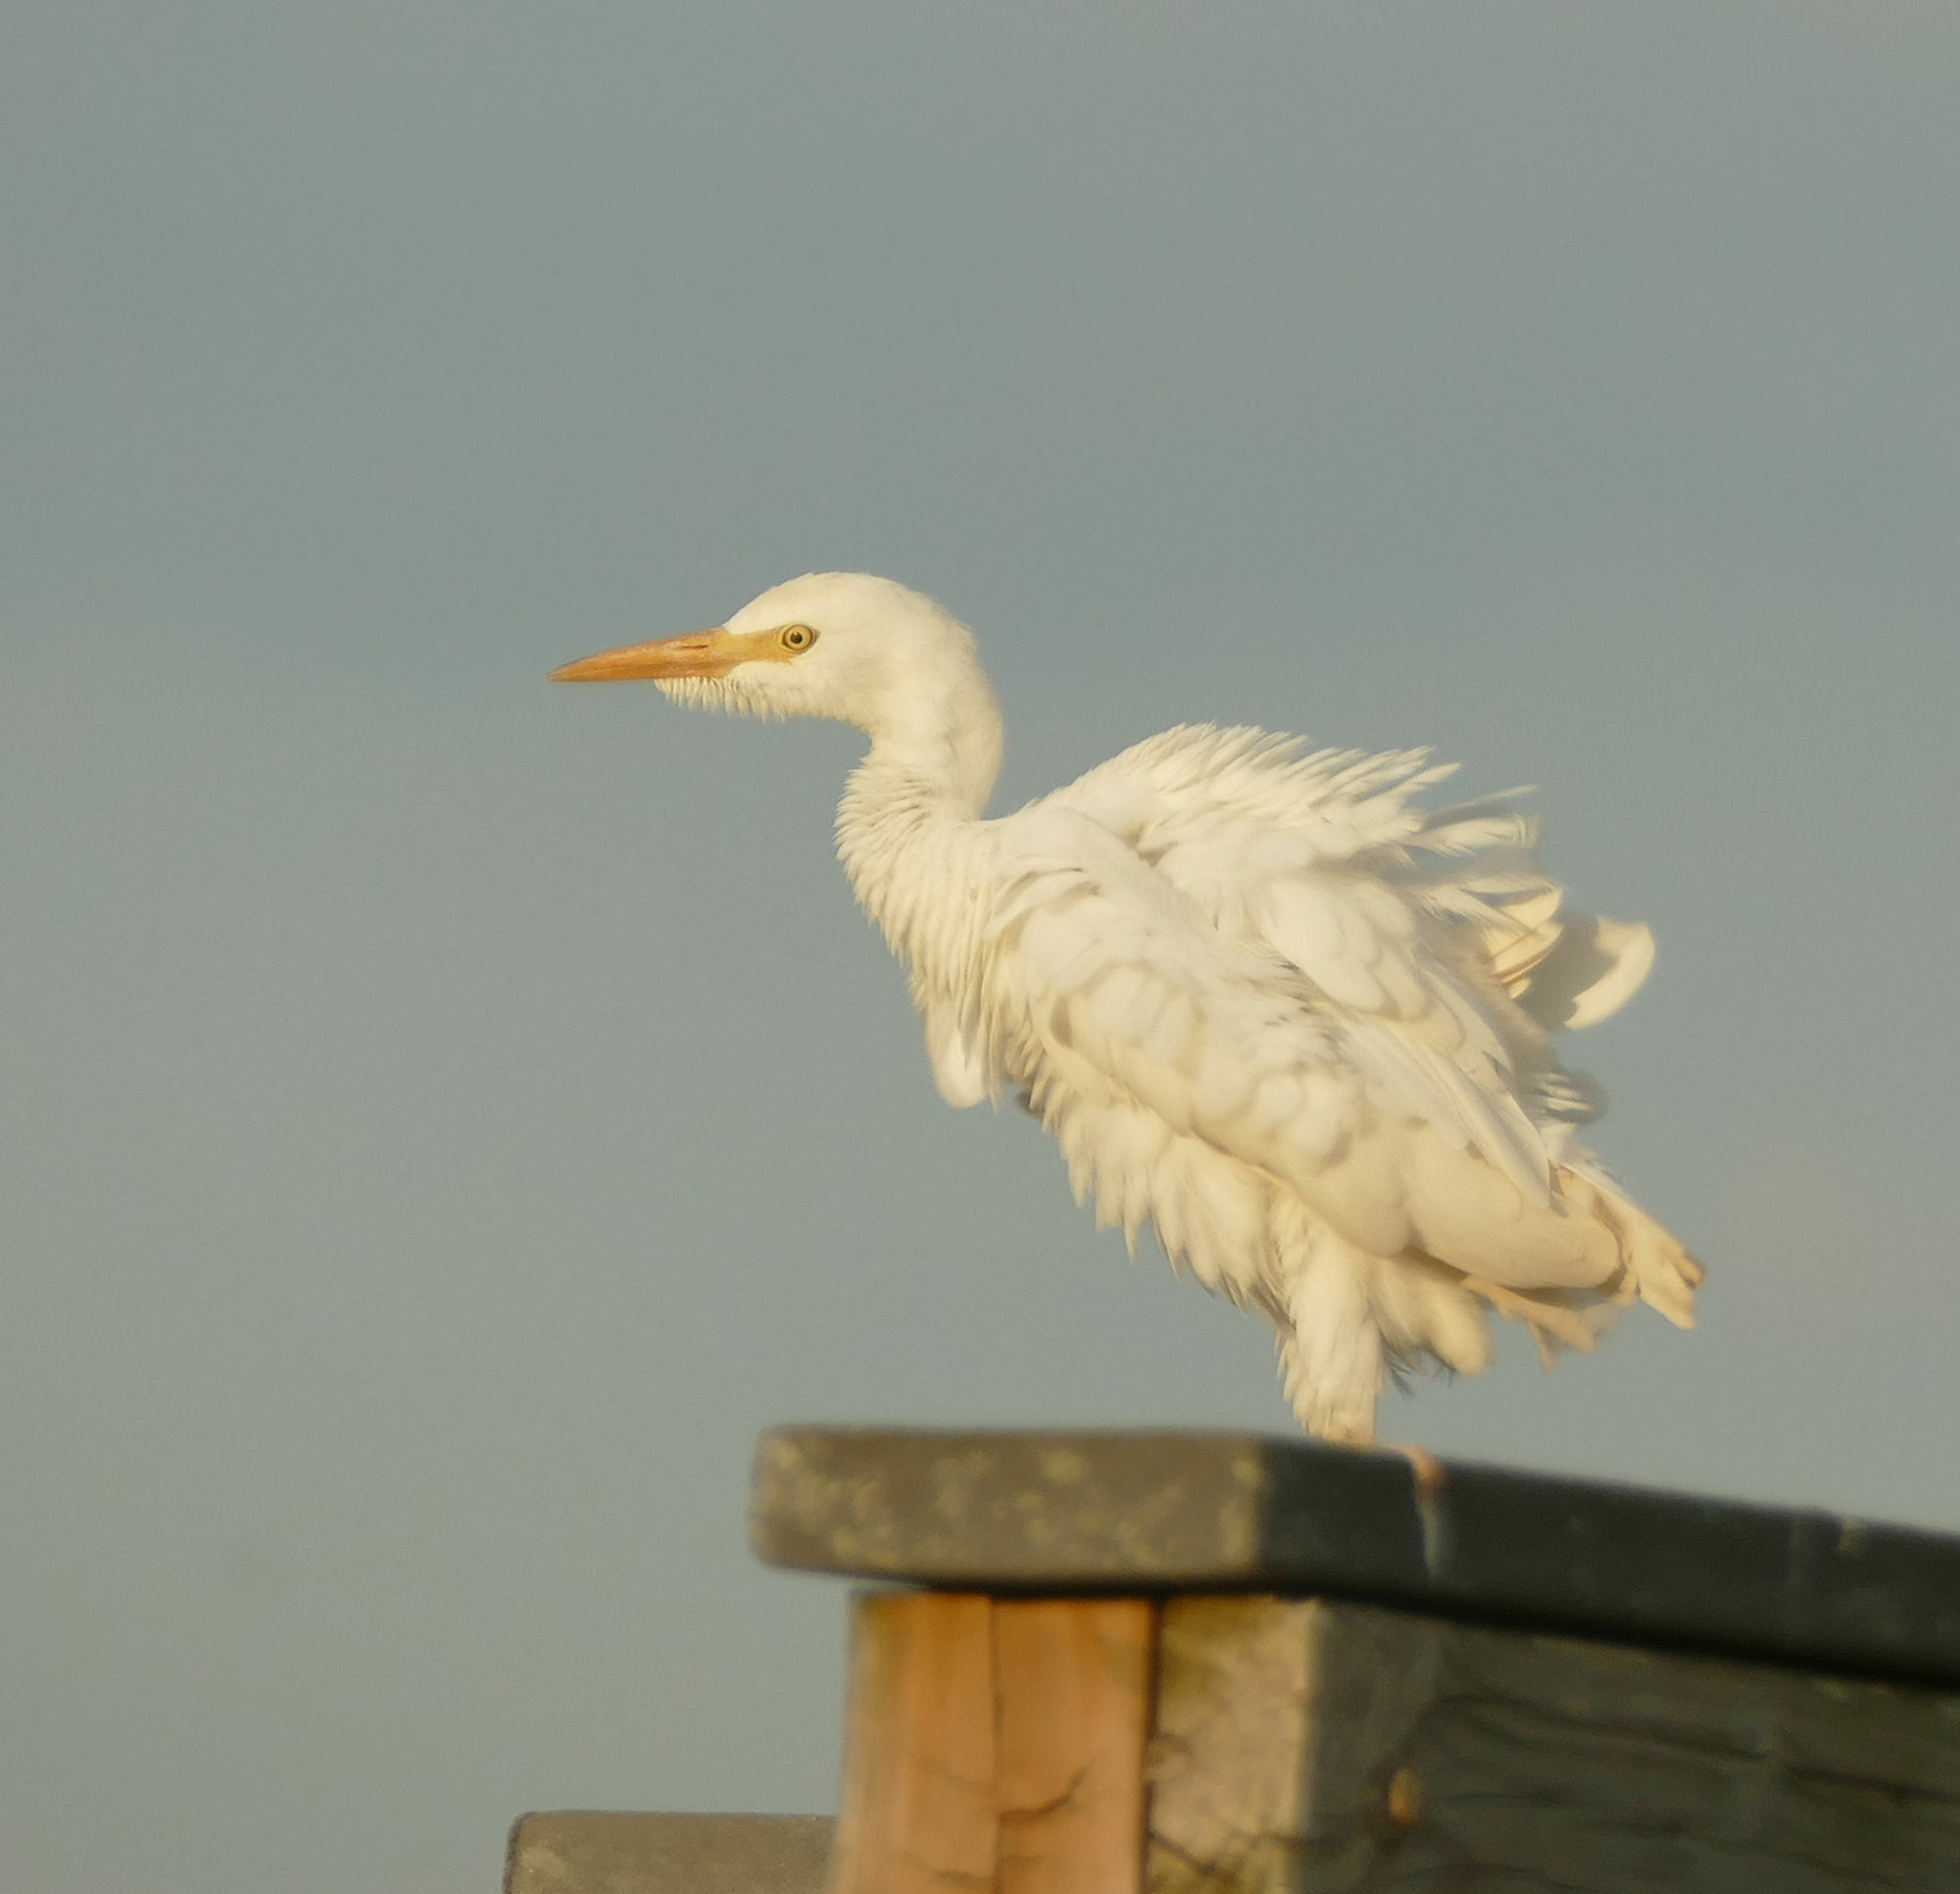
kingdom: Animalia
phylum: Chordata
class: Aves
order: Pelecaniformes
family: Ardeidae
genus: Bubulcus
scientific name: Bubulcus ibis
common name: Cattle egret
